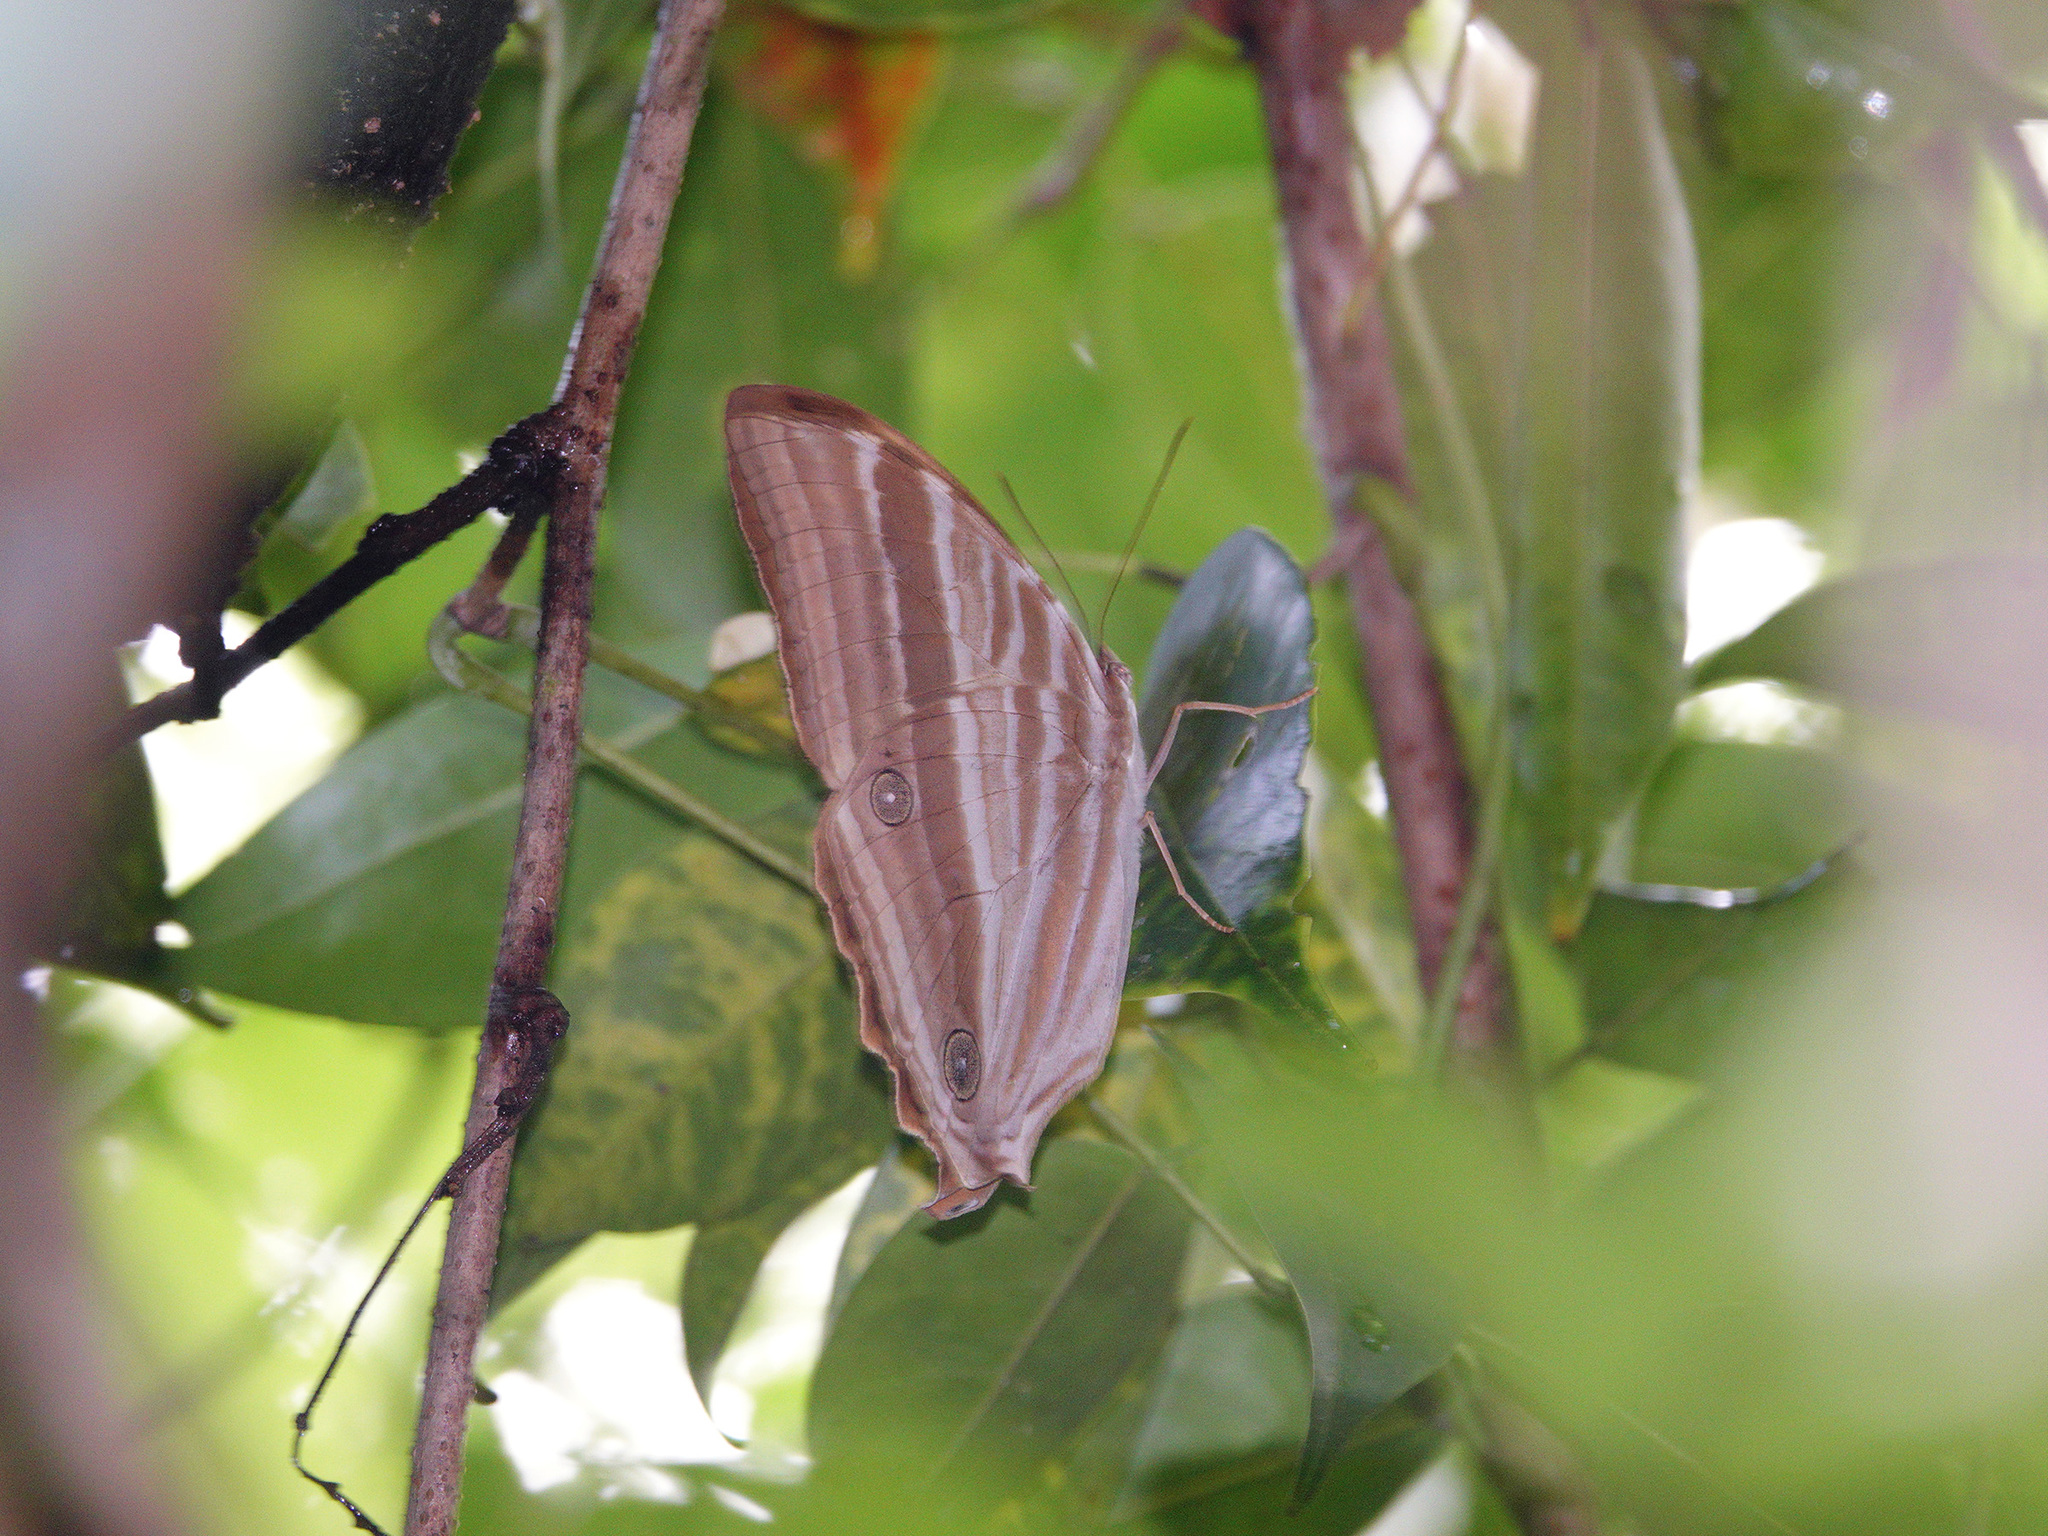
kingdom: Animalia
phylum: Arthropoda
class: Insecta
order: Lepidoptera
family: Nymphalidae
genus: Amathusia
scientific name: Amathusia phidippus
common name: Palm king
